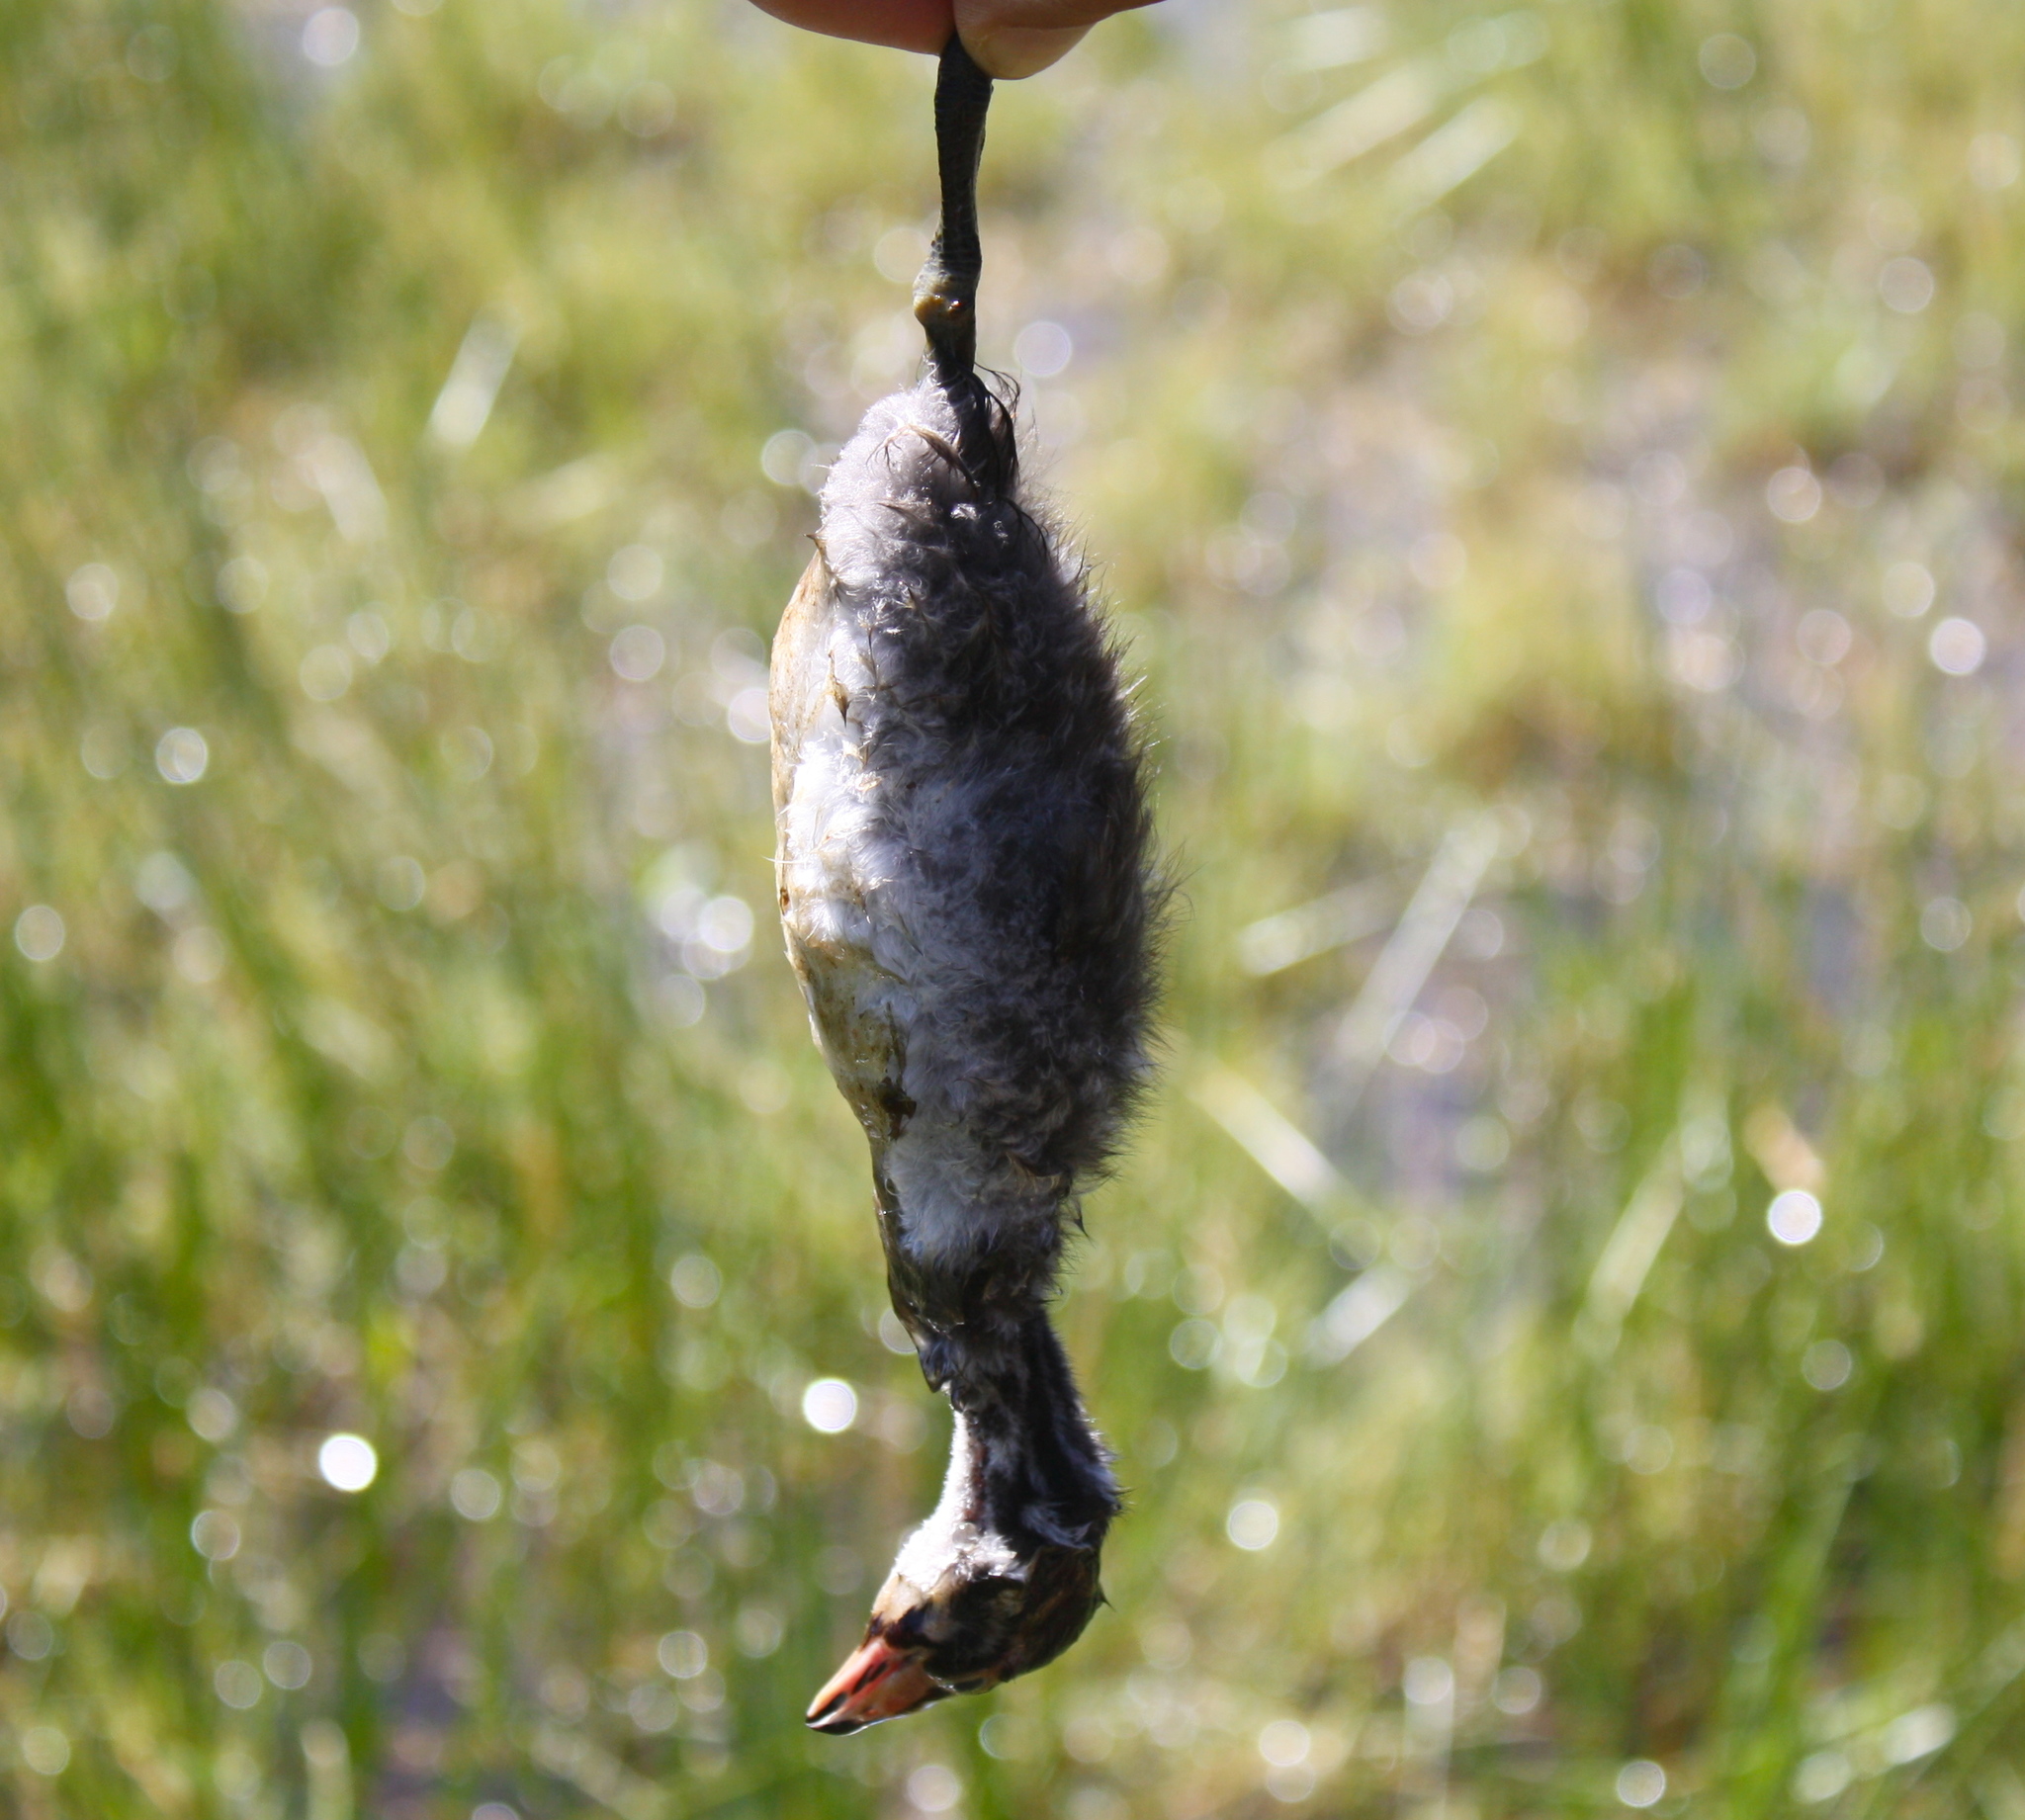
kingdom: Animalia
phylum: Chordata
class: Aves
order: Podicipediformes
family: Podicipedidae
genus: Podilymbus
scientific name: Podilymbus podiceps
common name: Pied-billed grebe
